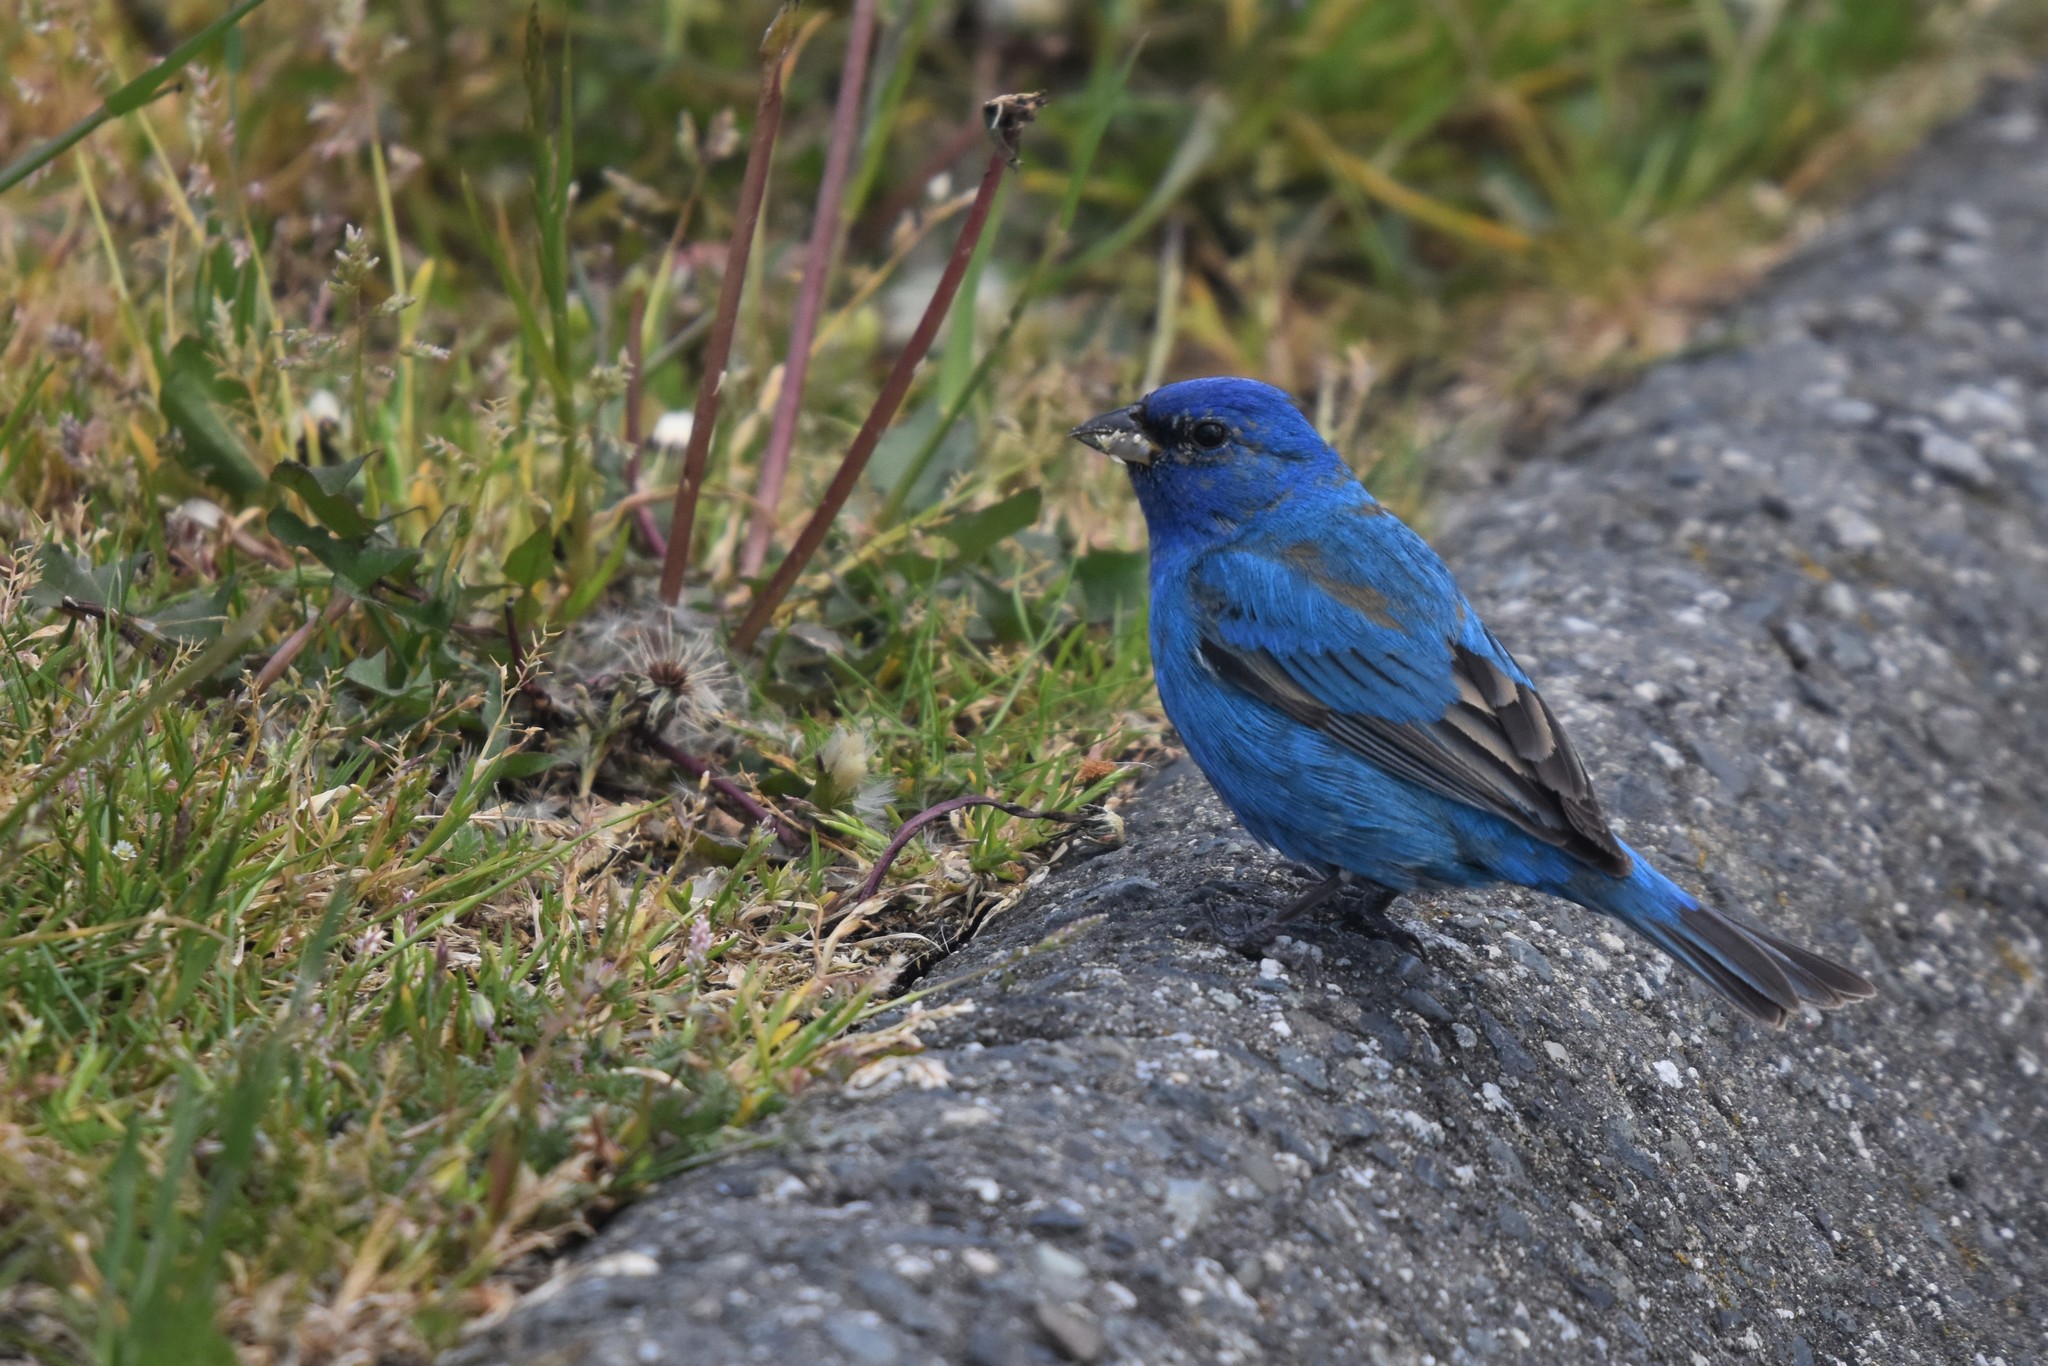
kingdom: Animalia
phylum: Chordata
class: Aves
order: Passeriformes
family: Cardinalidae
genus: Passerina
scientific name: Passerina cyanea
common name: Indigo bunting
